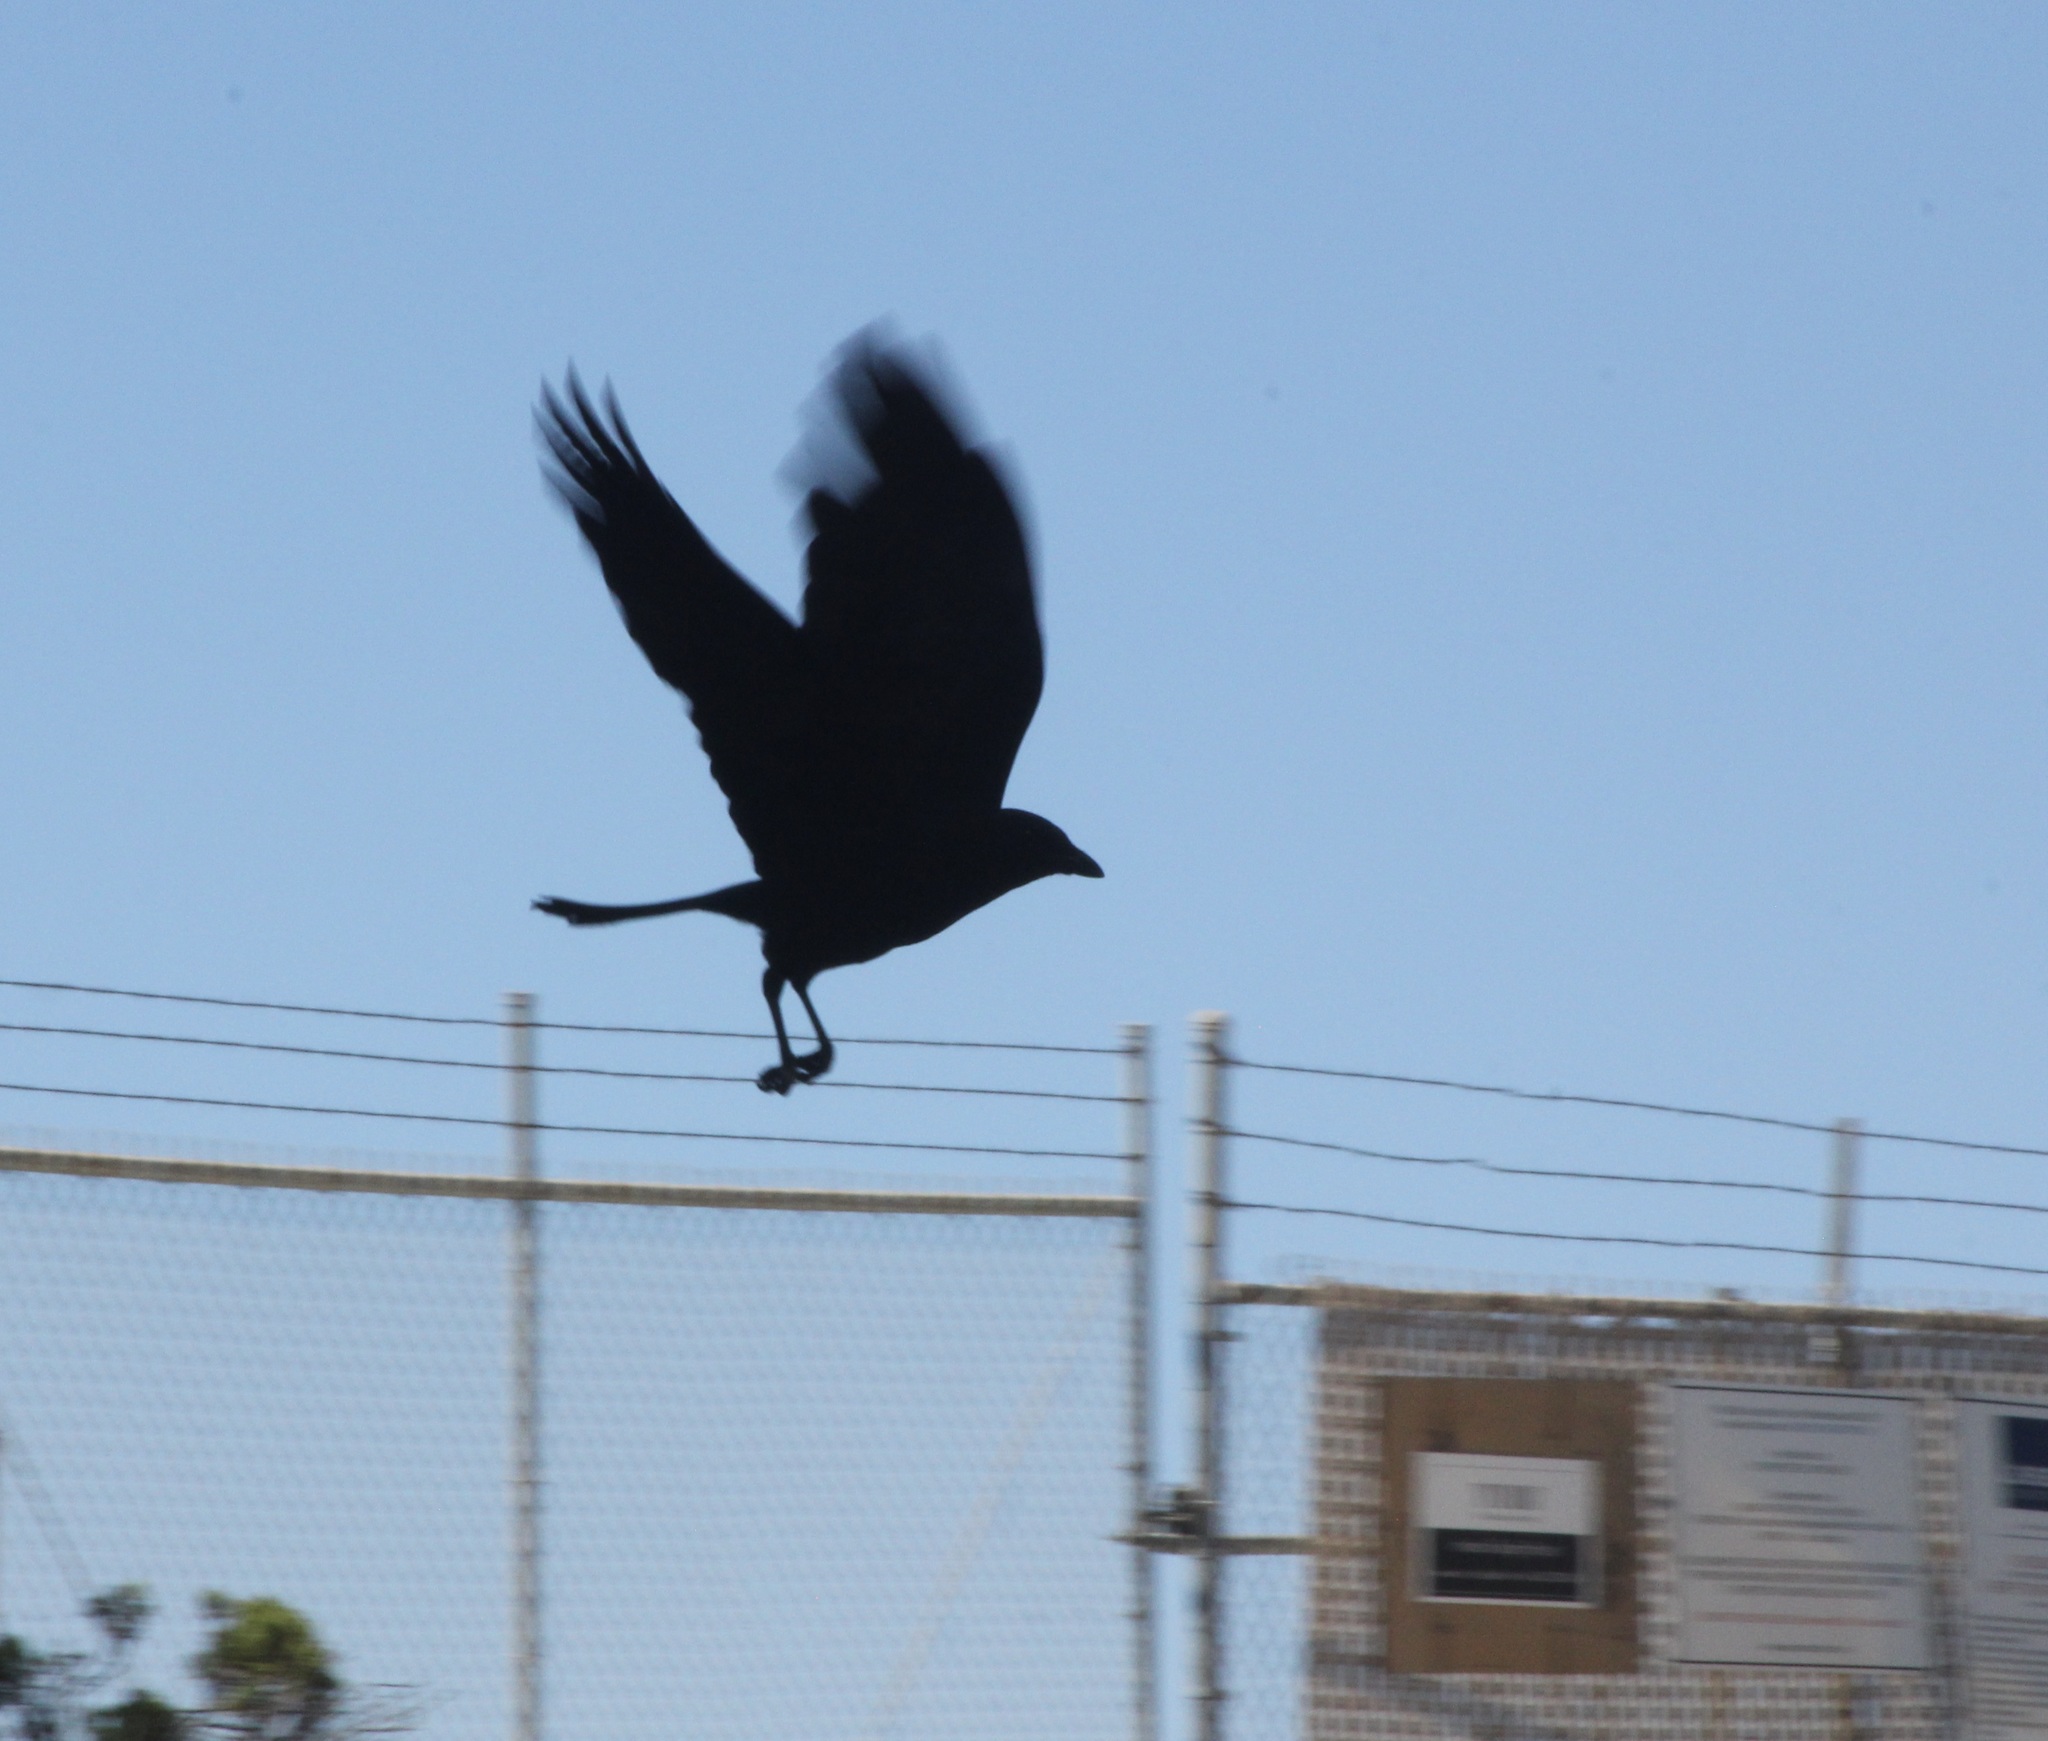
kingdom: Animalia
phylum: Chordata
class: Aves
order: Passeriformes
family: Corvidae
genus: Corvus
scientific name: Corvus brachyrhynchos
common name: American crow
